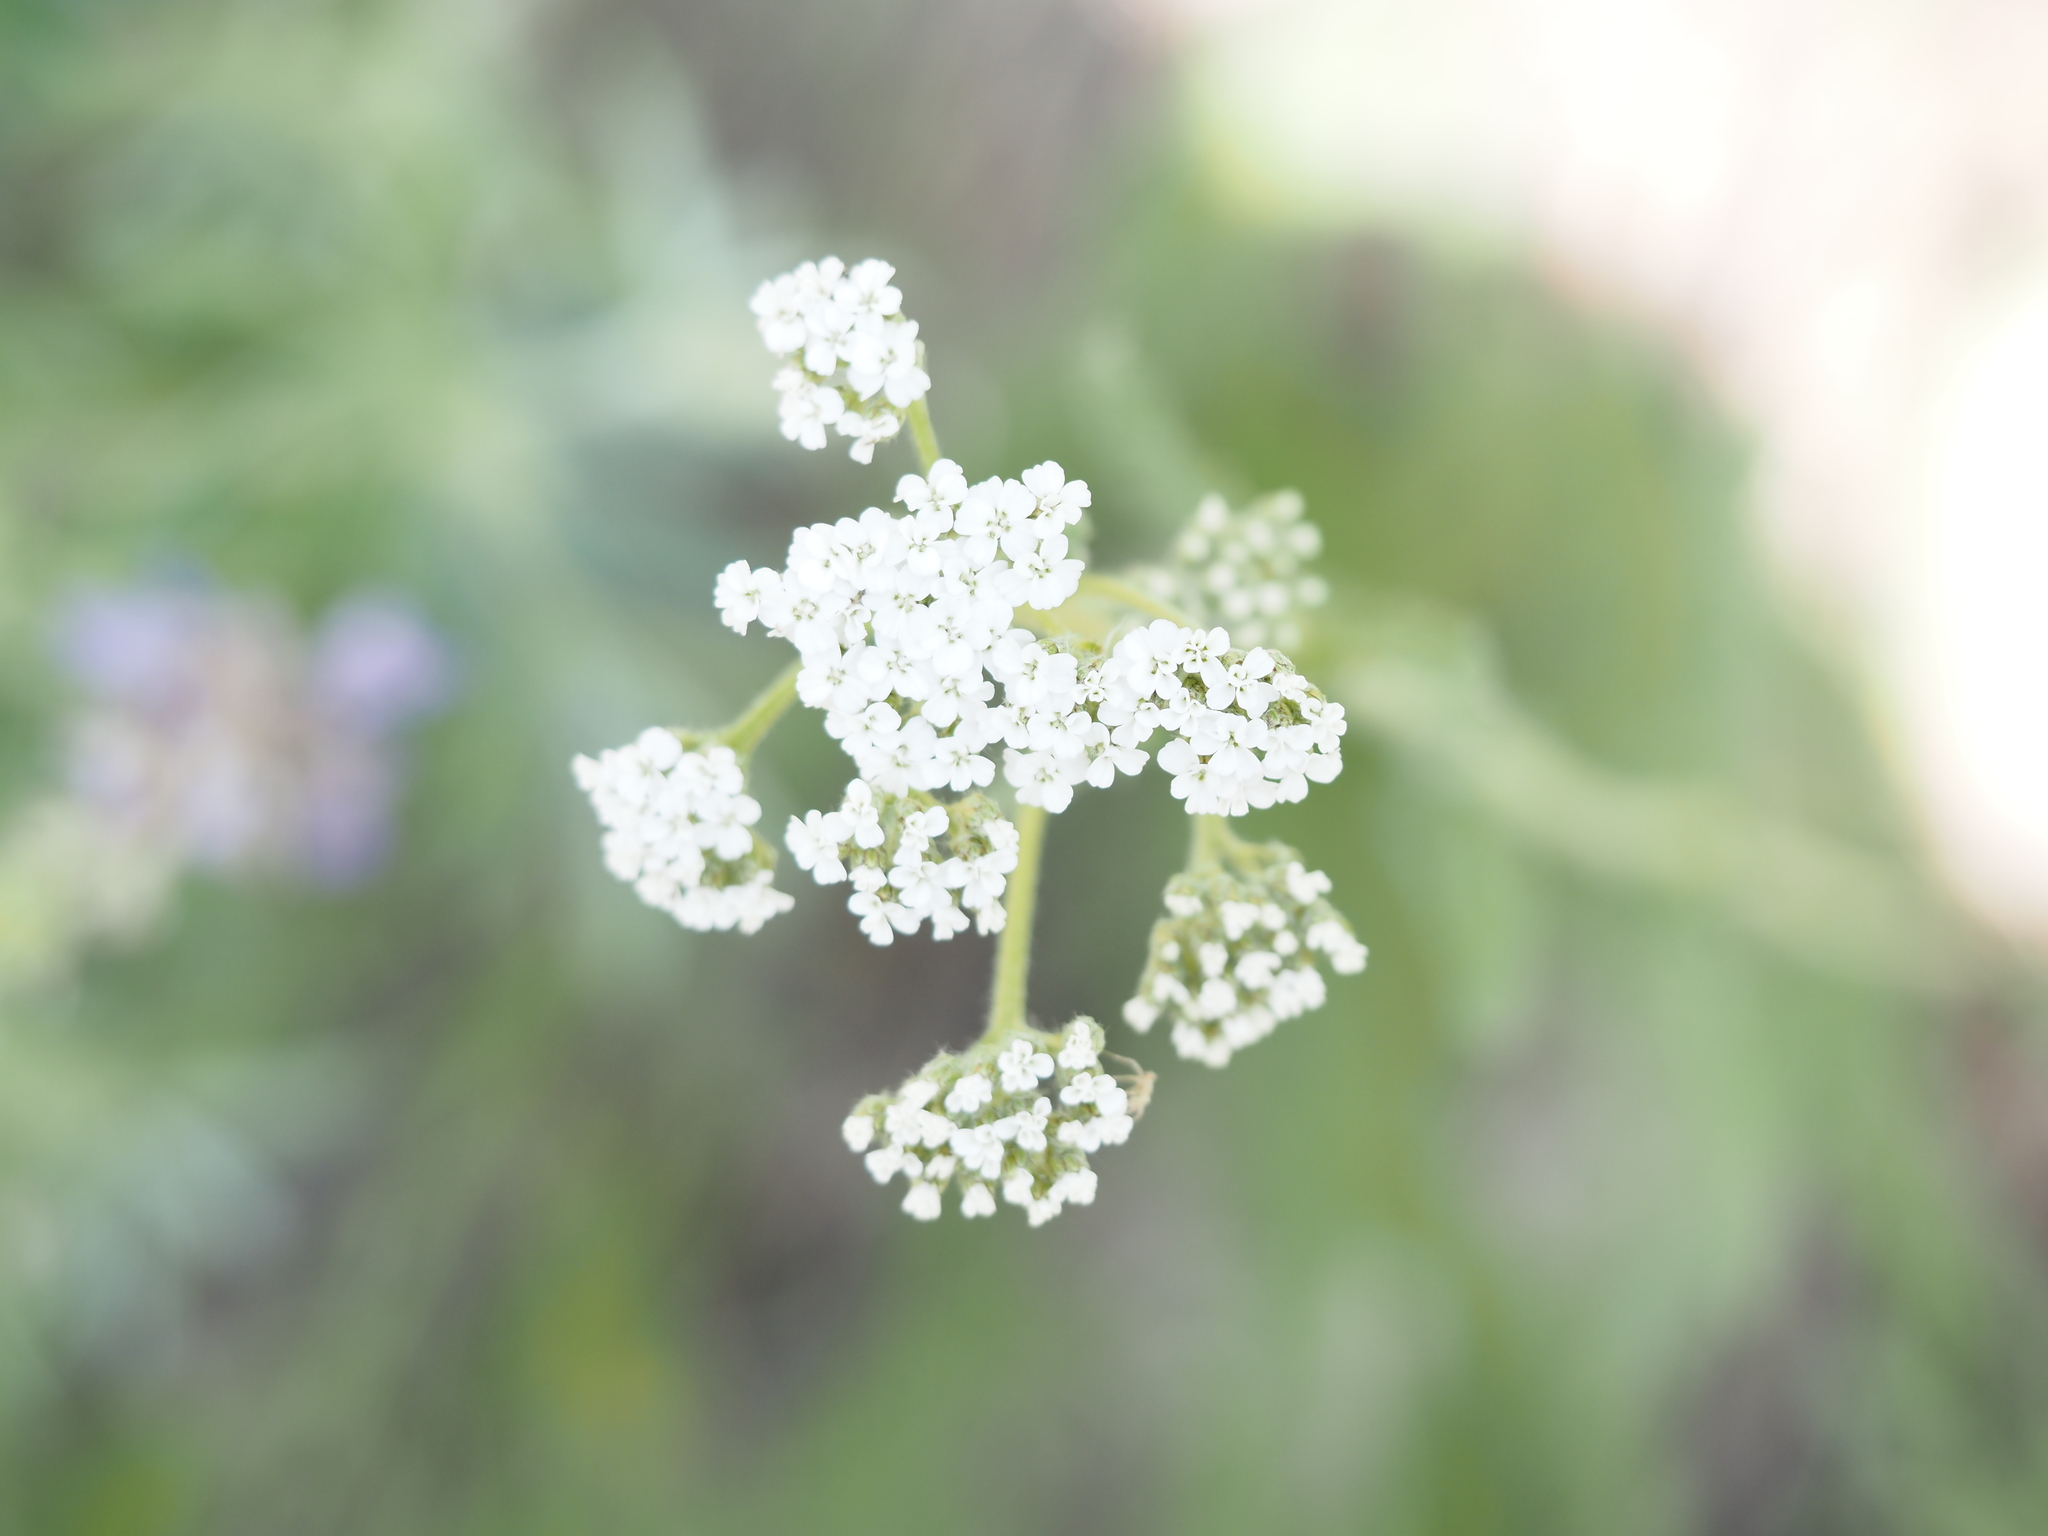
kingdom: Plantae
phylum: Tracheophyta
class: Magnoliopsida
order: Asterales
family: Asteraceae
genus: Achillea
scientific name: Achillea millefolium
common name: Yarrow
